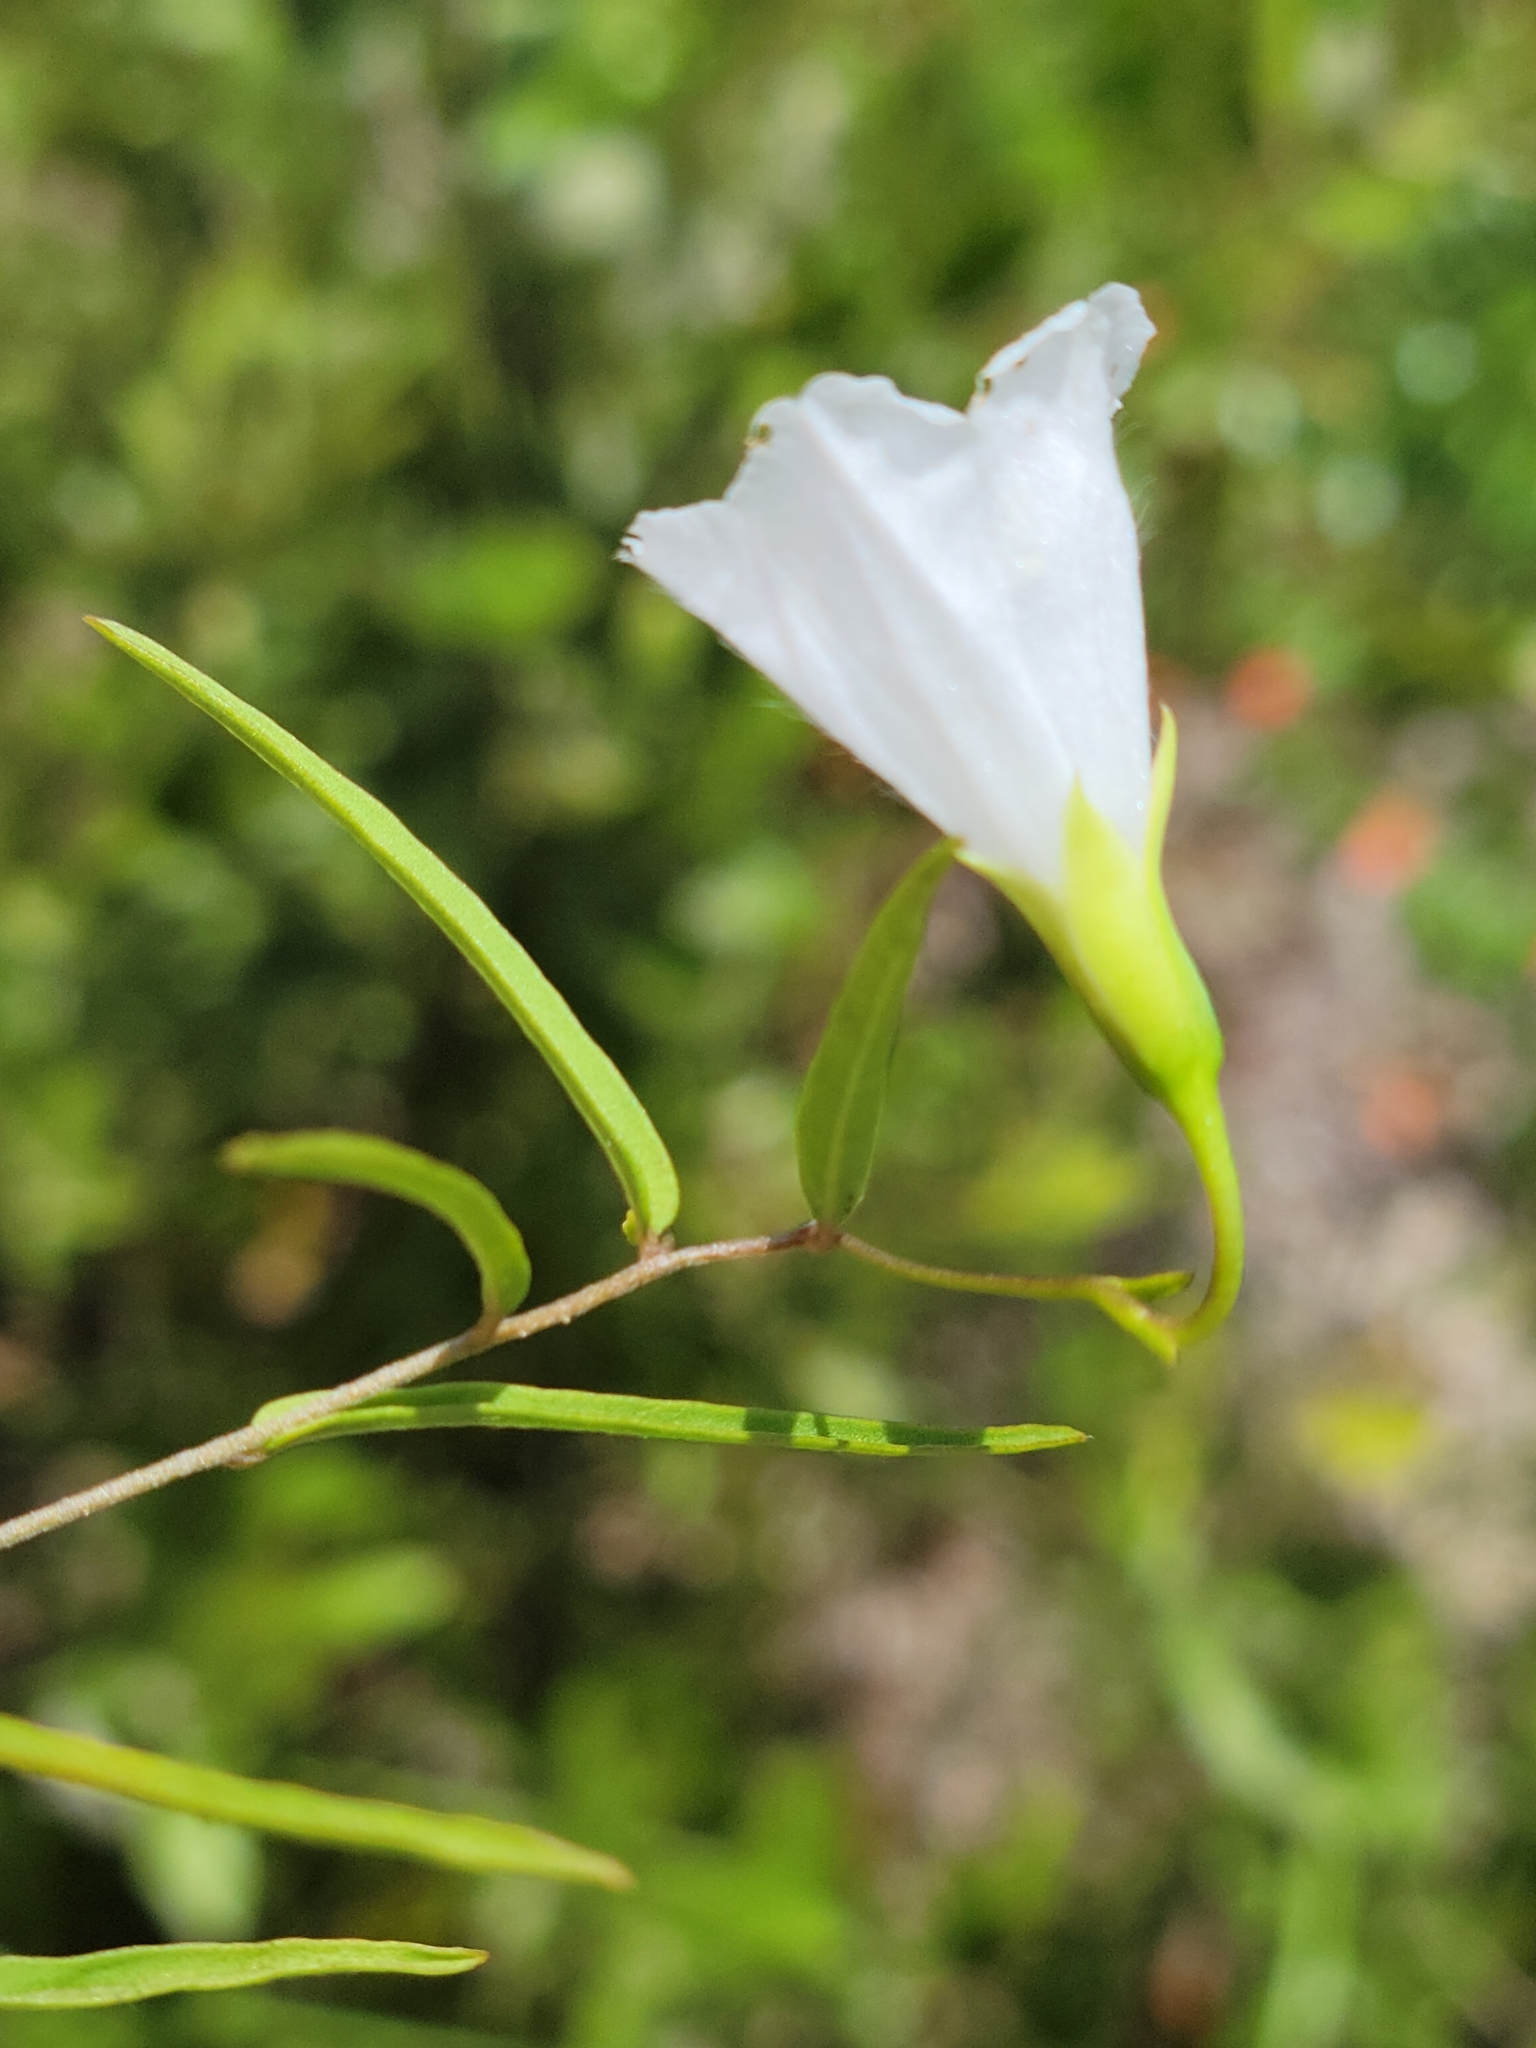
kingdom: Plantae
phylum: Tracheophyta
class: Magnoliopsida
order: Solanales
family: Convolvulaceae
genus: Stylisma
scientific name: Stylisma patens
